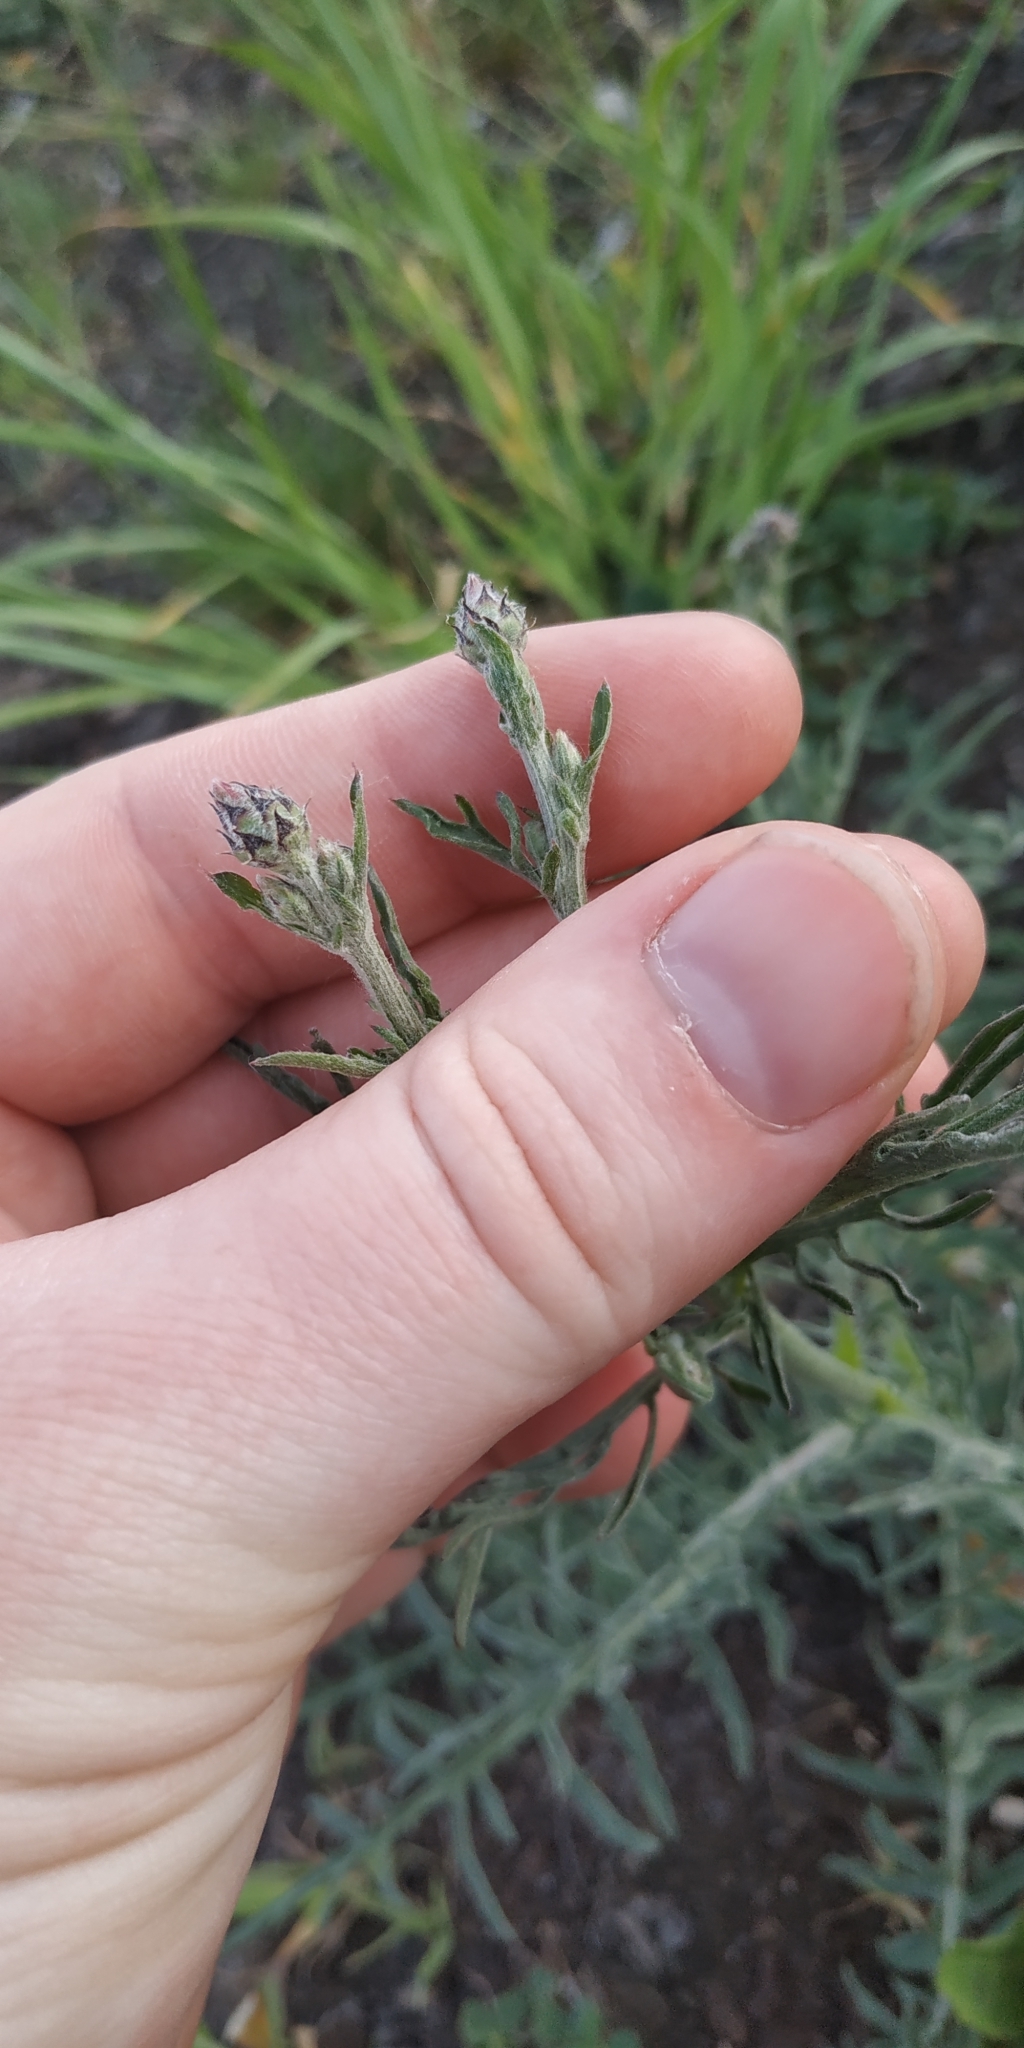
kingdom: Plantae
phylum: Tracheophyta
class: Magnoliopsida
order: Asterales
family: Asteraceae
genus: Centaurea
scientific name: Centaurea scabiosa
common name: Greater knapweed
